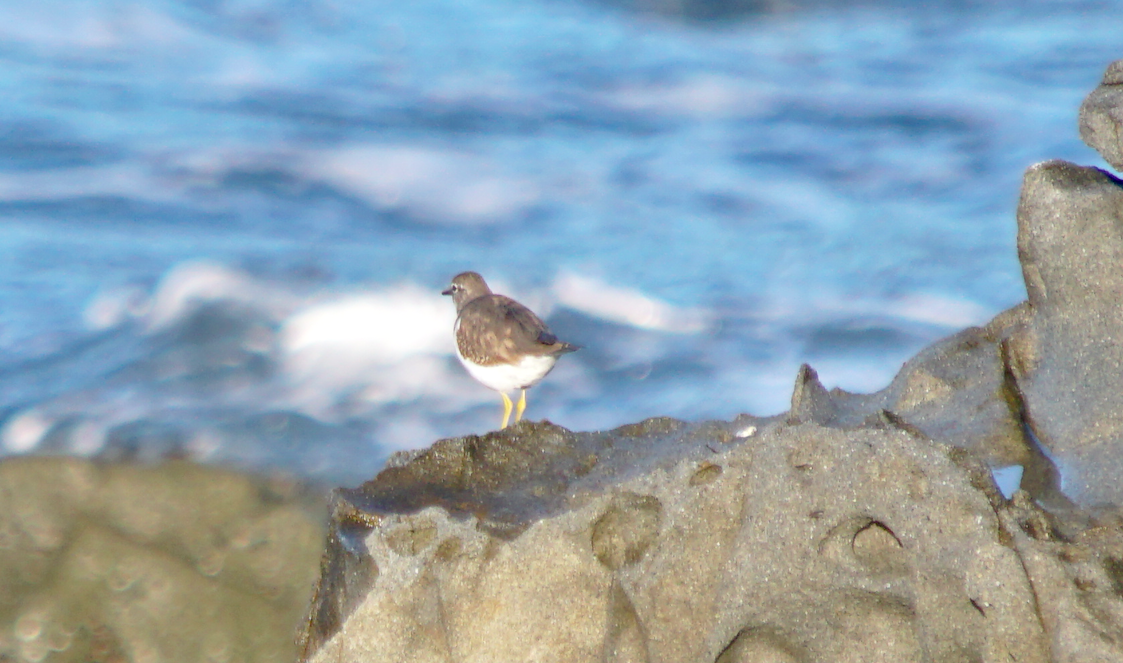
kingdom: Animalia
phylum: Chordata
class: Aves
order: Charadriiformes
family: Scolopacidae
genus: Actitis
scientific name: Actitis macularius
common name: Spotted sandpiper
